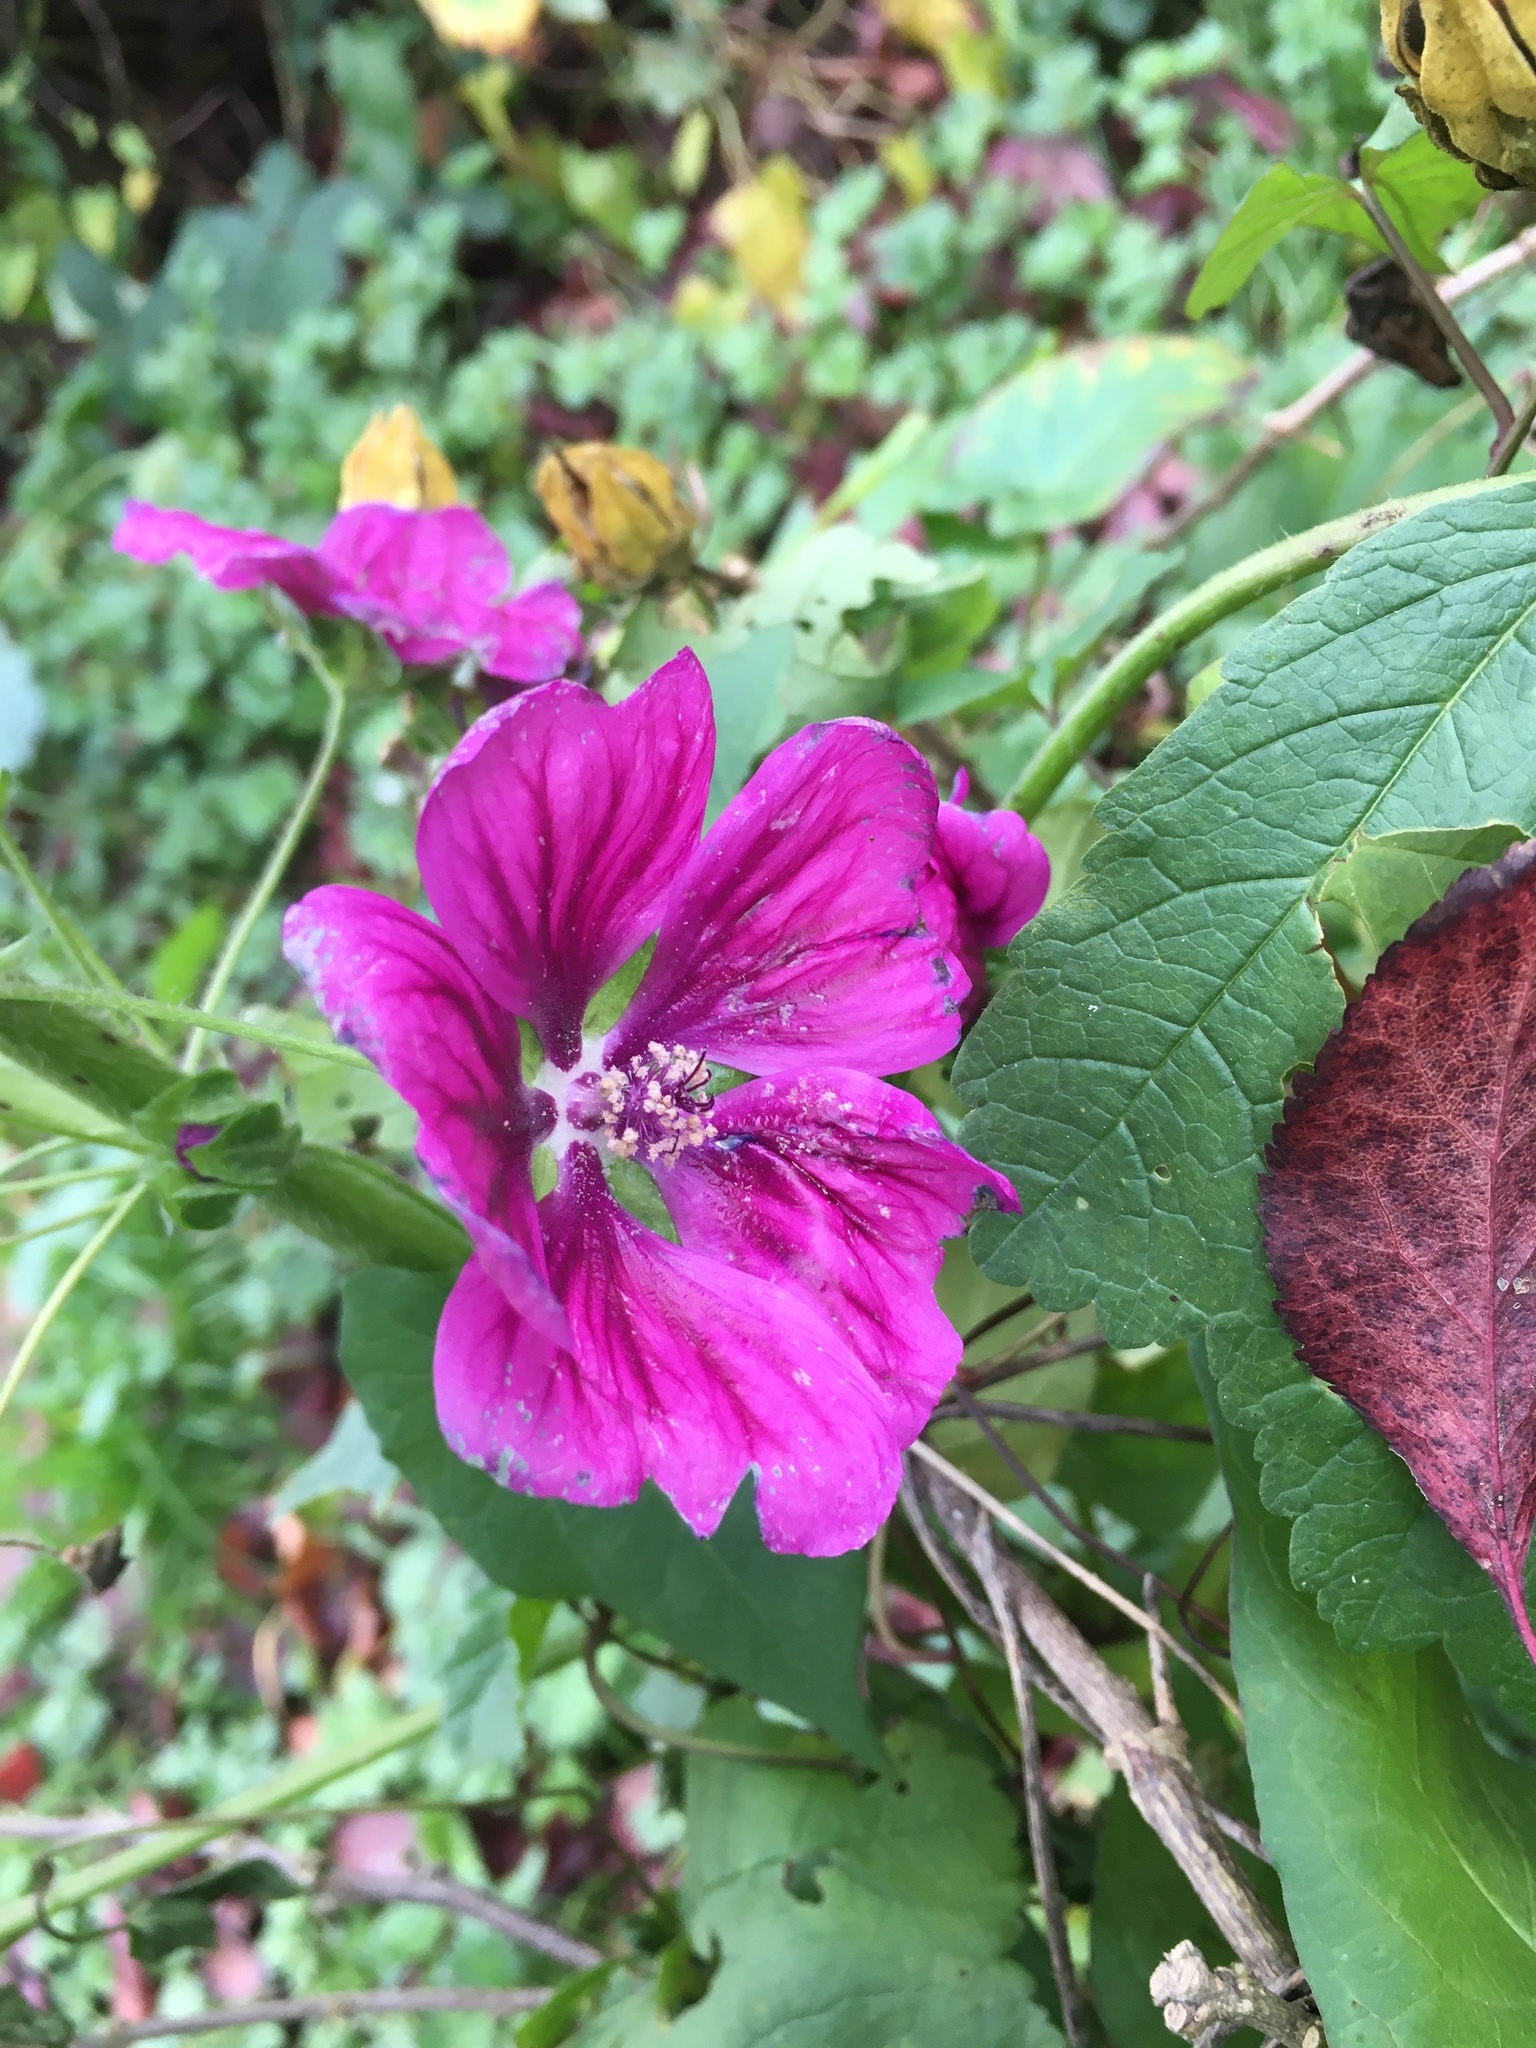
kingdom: Plantae
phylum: Tracheophyta
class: Magnoliopsida
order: Malvales
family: Malvaceae
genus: Malva
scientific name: Malva sylvestris
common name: Common mallow
